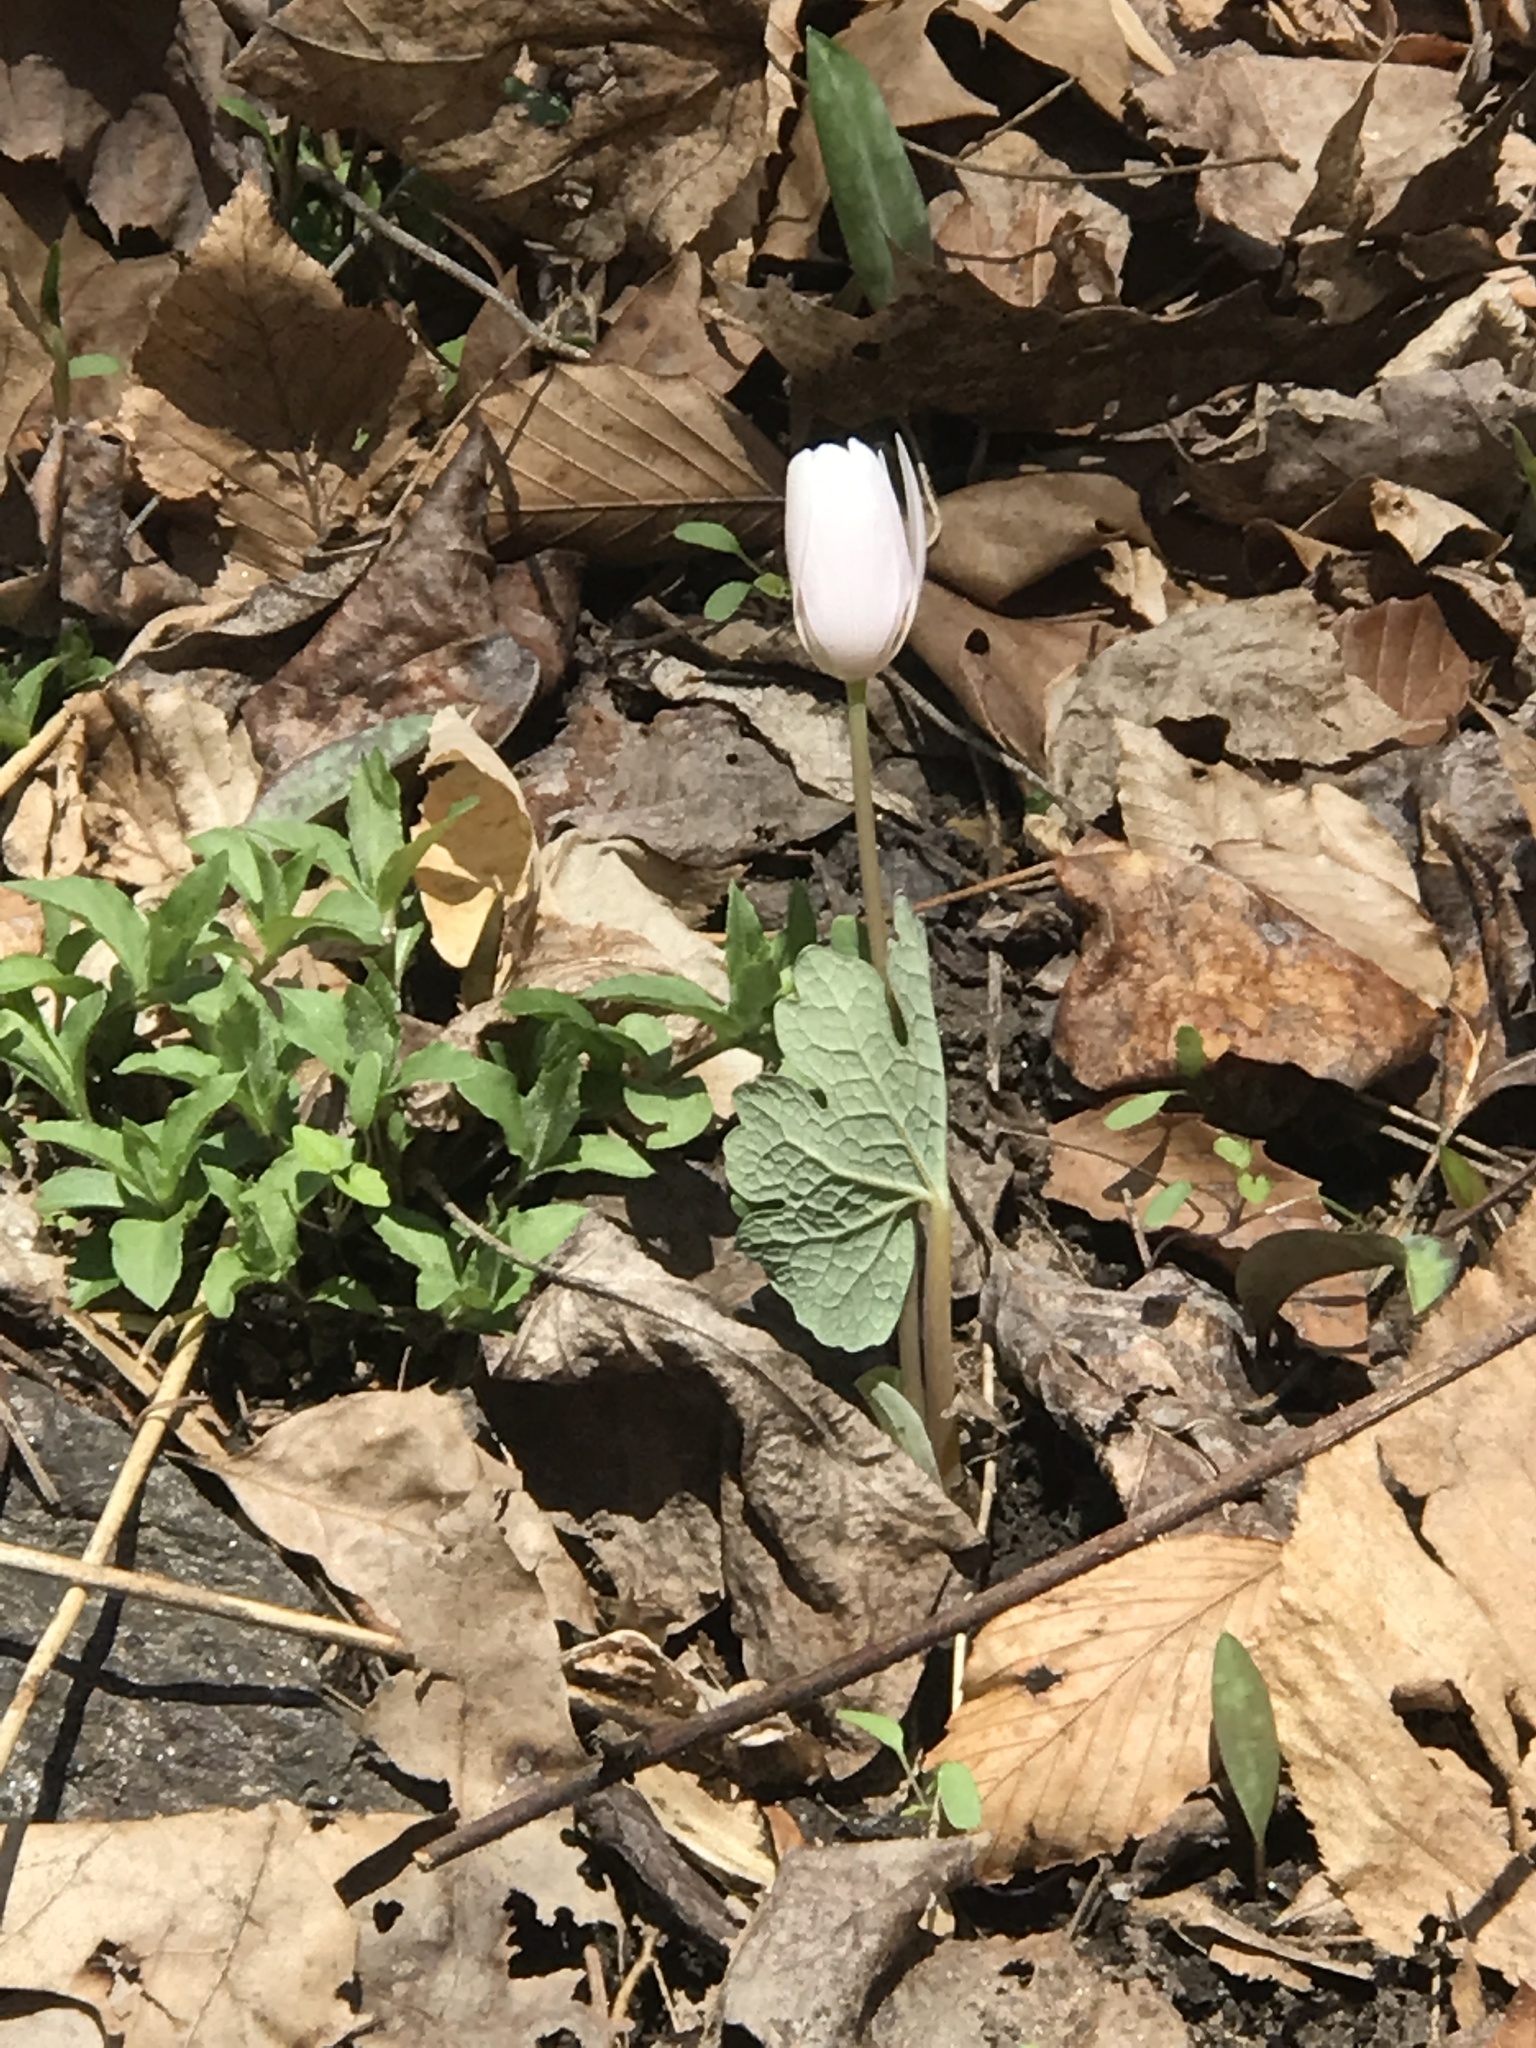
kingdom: Plantae
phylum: Tracheophyta
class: Magnoliopsida
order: Ranunculales
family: Papaveraceae
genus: Sanguinaria
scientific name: Sanguinaria canadensis
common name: Bloodroot
